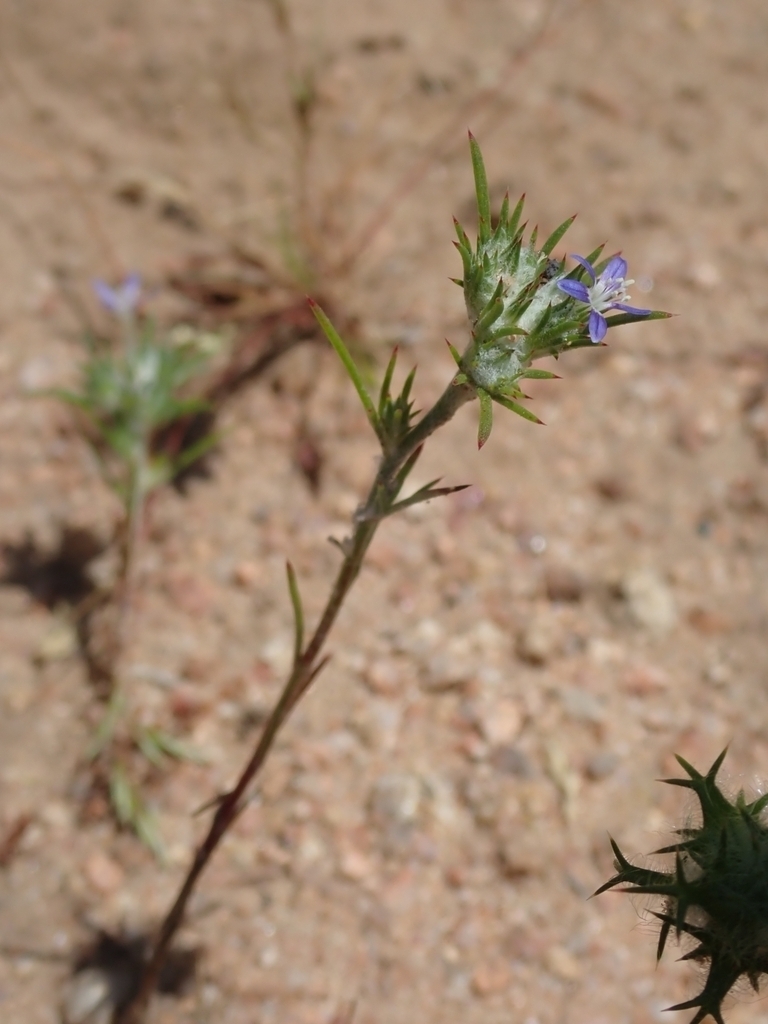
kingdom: Plantae
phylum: Tracheophyta
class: Magnoliopsida
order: Ericales
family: Polemoniaceae
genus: Eriastrum
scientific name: Eriastrum filifolium
